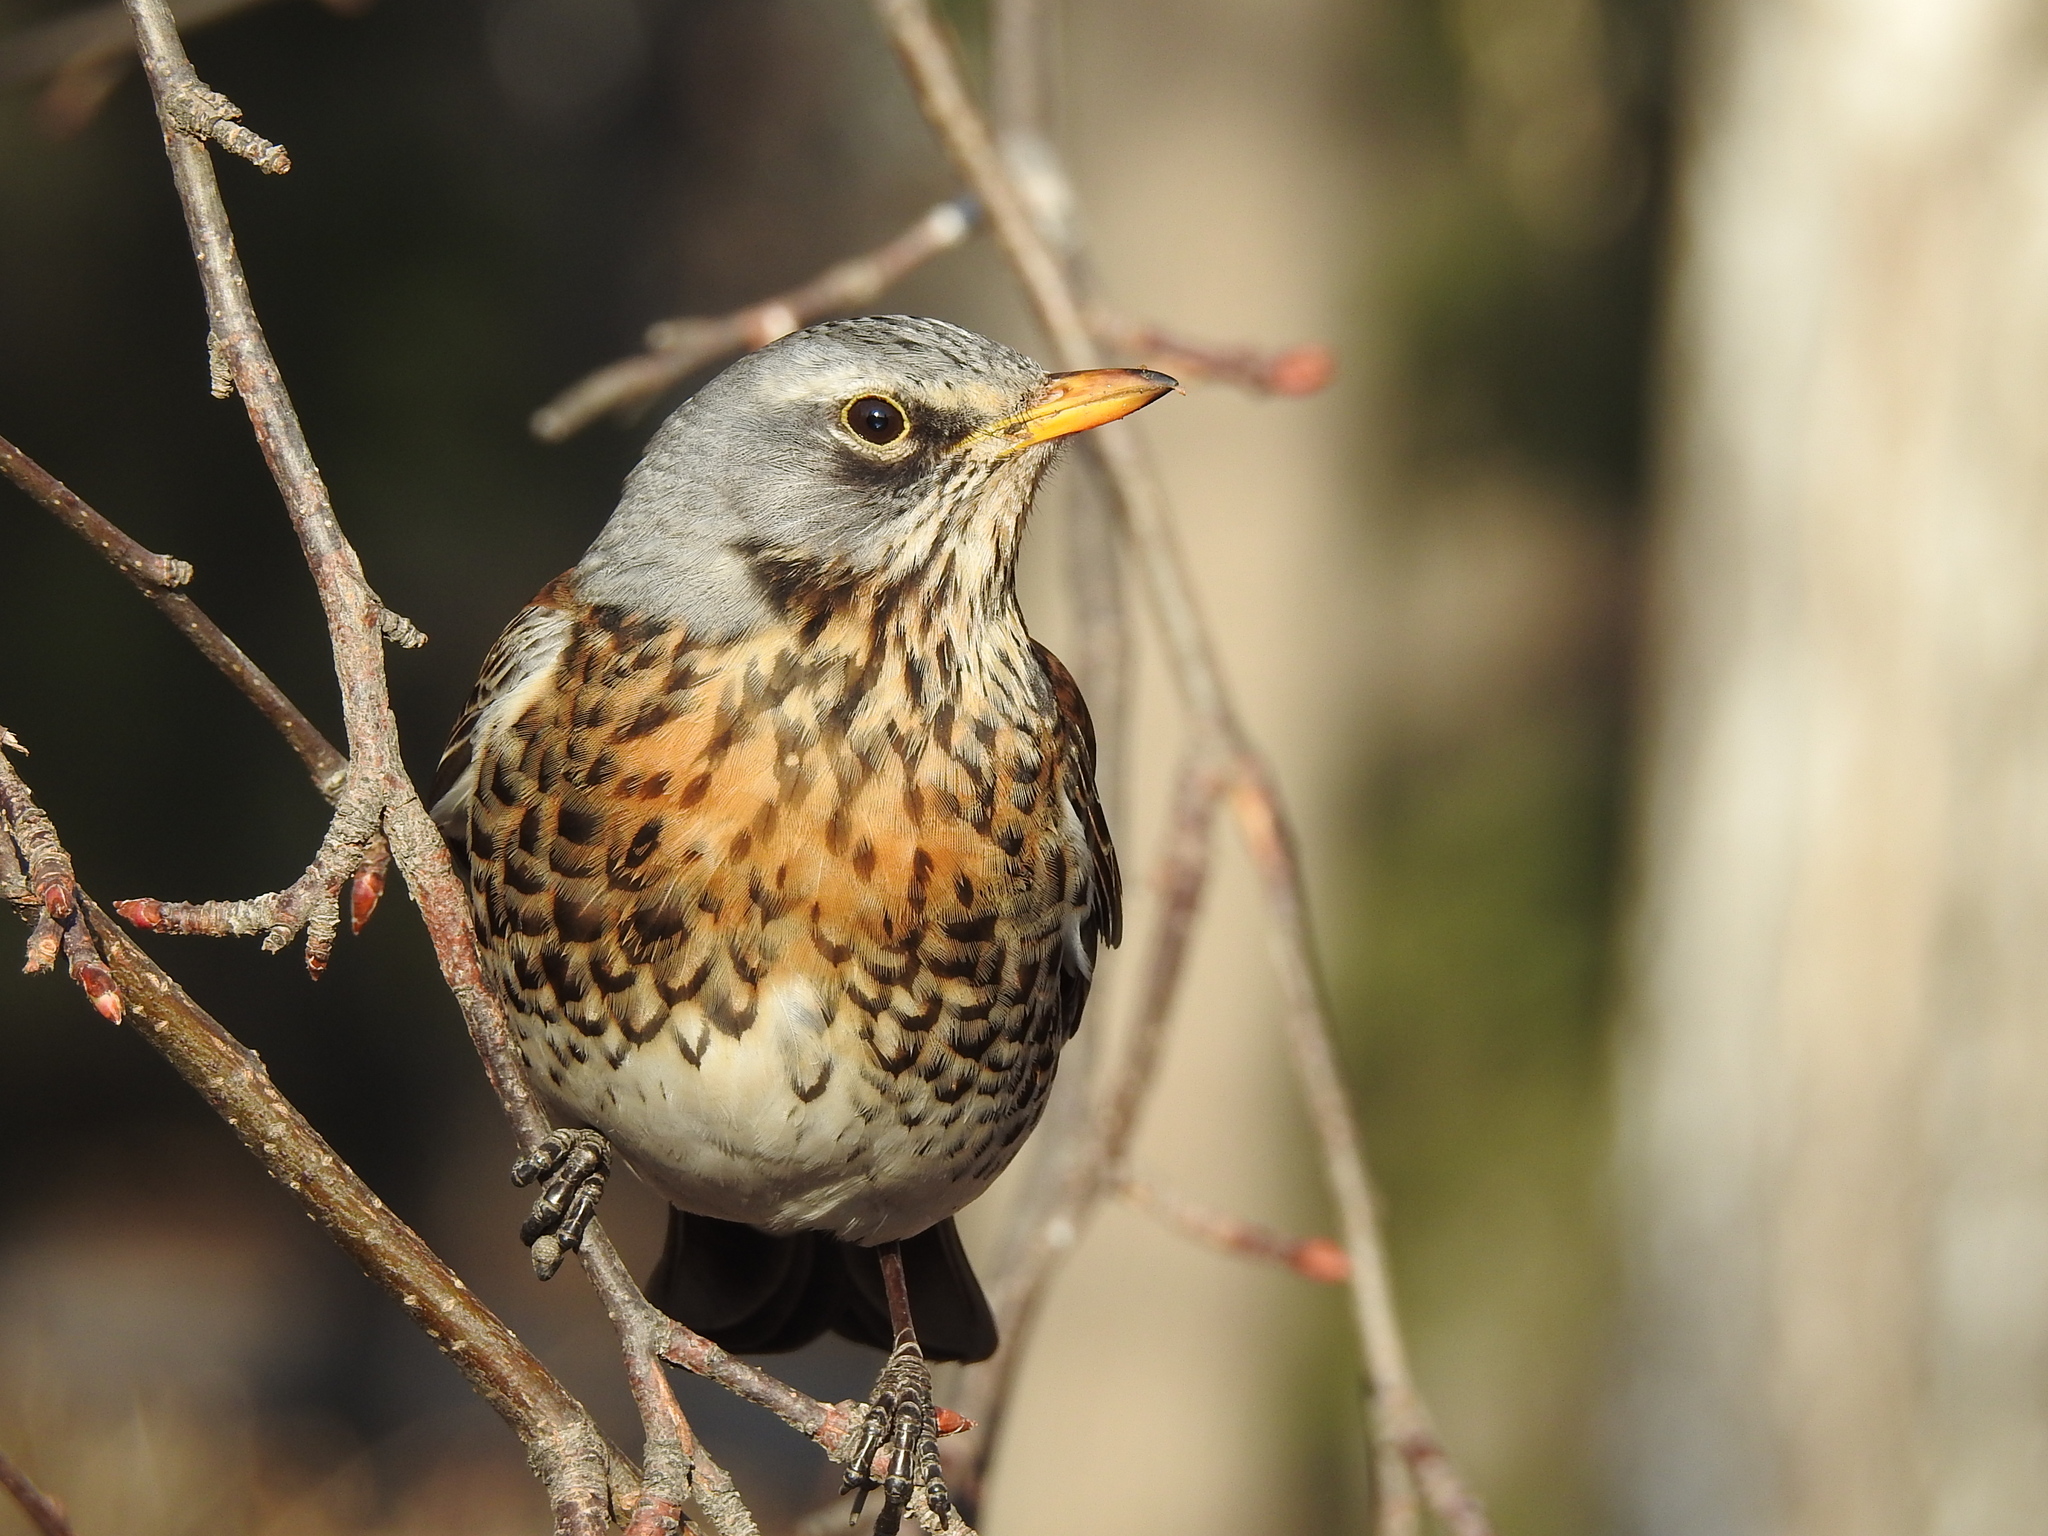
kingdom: Animalia
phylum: Chordata
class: Aves
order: Passeriformes
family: Turdidae
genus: Turdus
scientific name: Turdus pilaris
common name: Fieldfare
